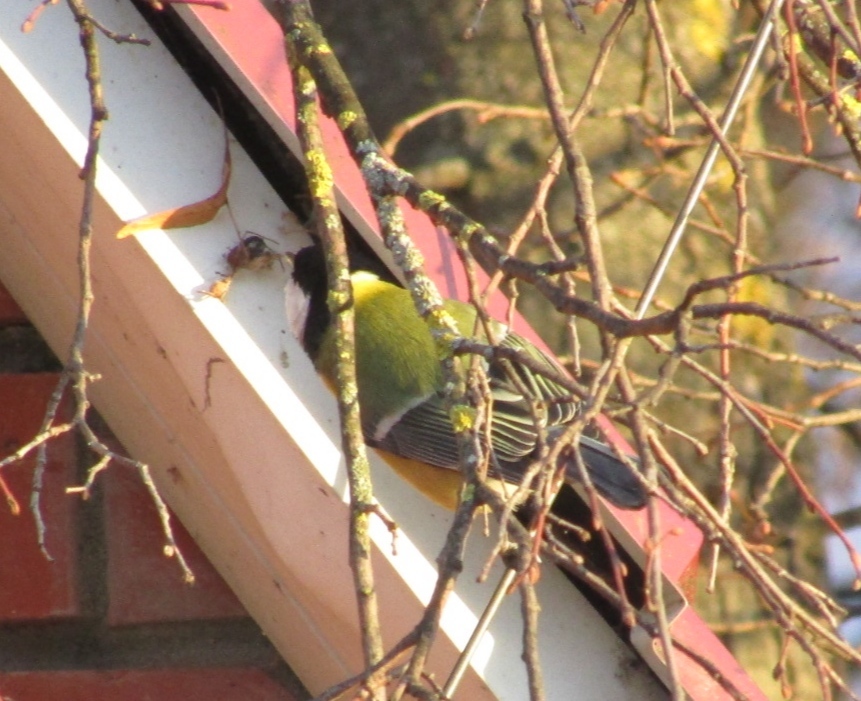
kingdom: Animalia
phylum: Chordata
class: Aves
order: Passeriformes
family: Paridae
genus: Parus
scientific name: Parus major
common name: Great tit
